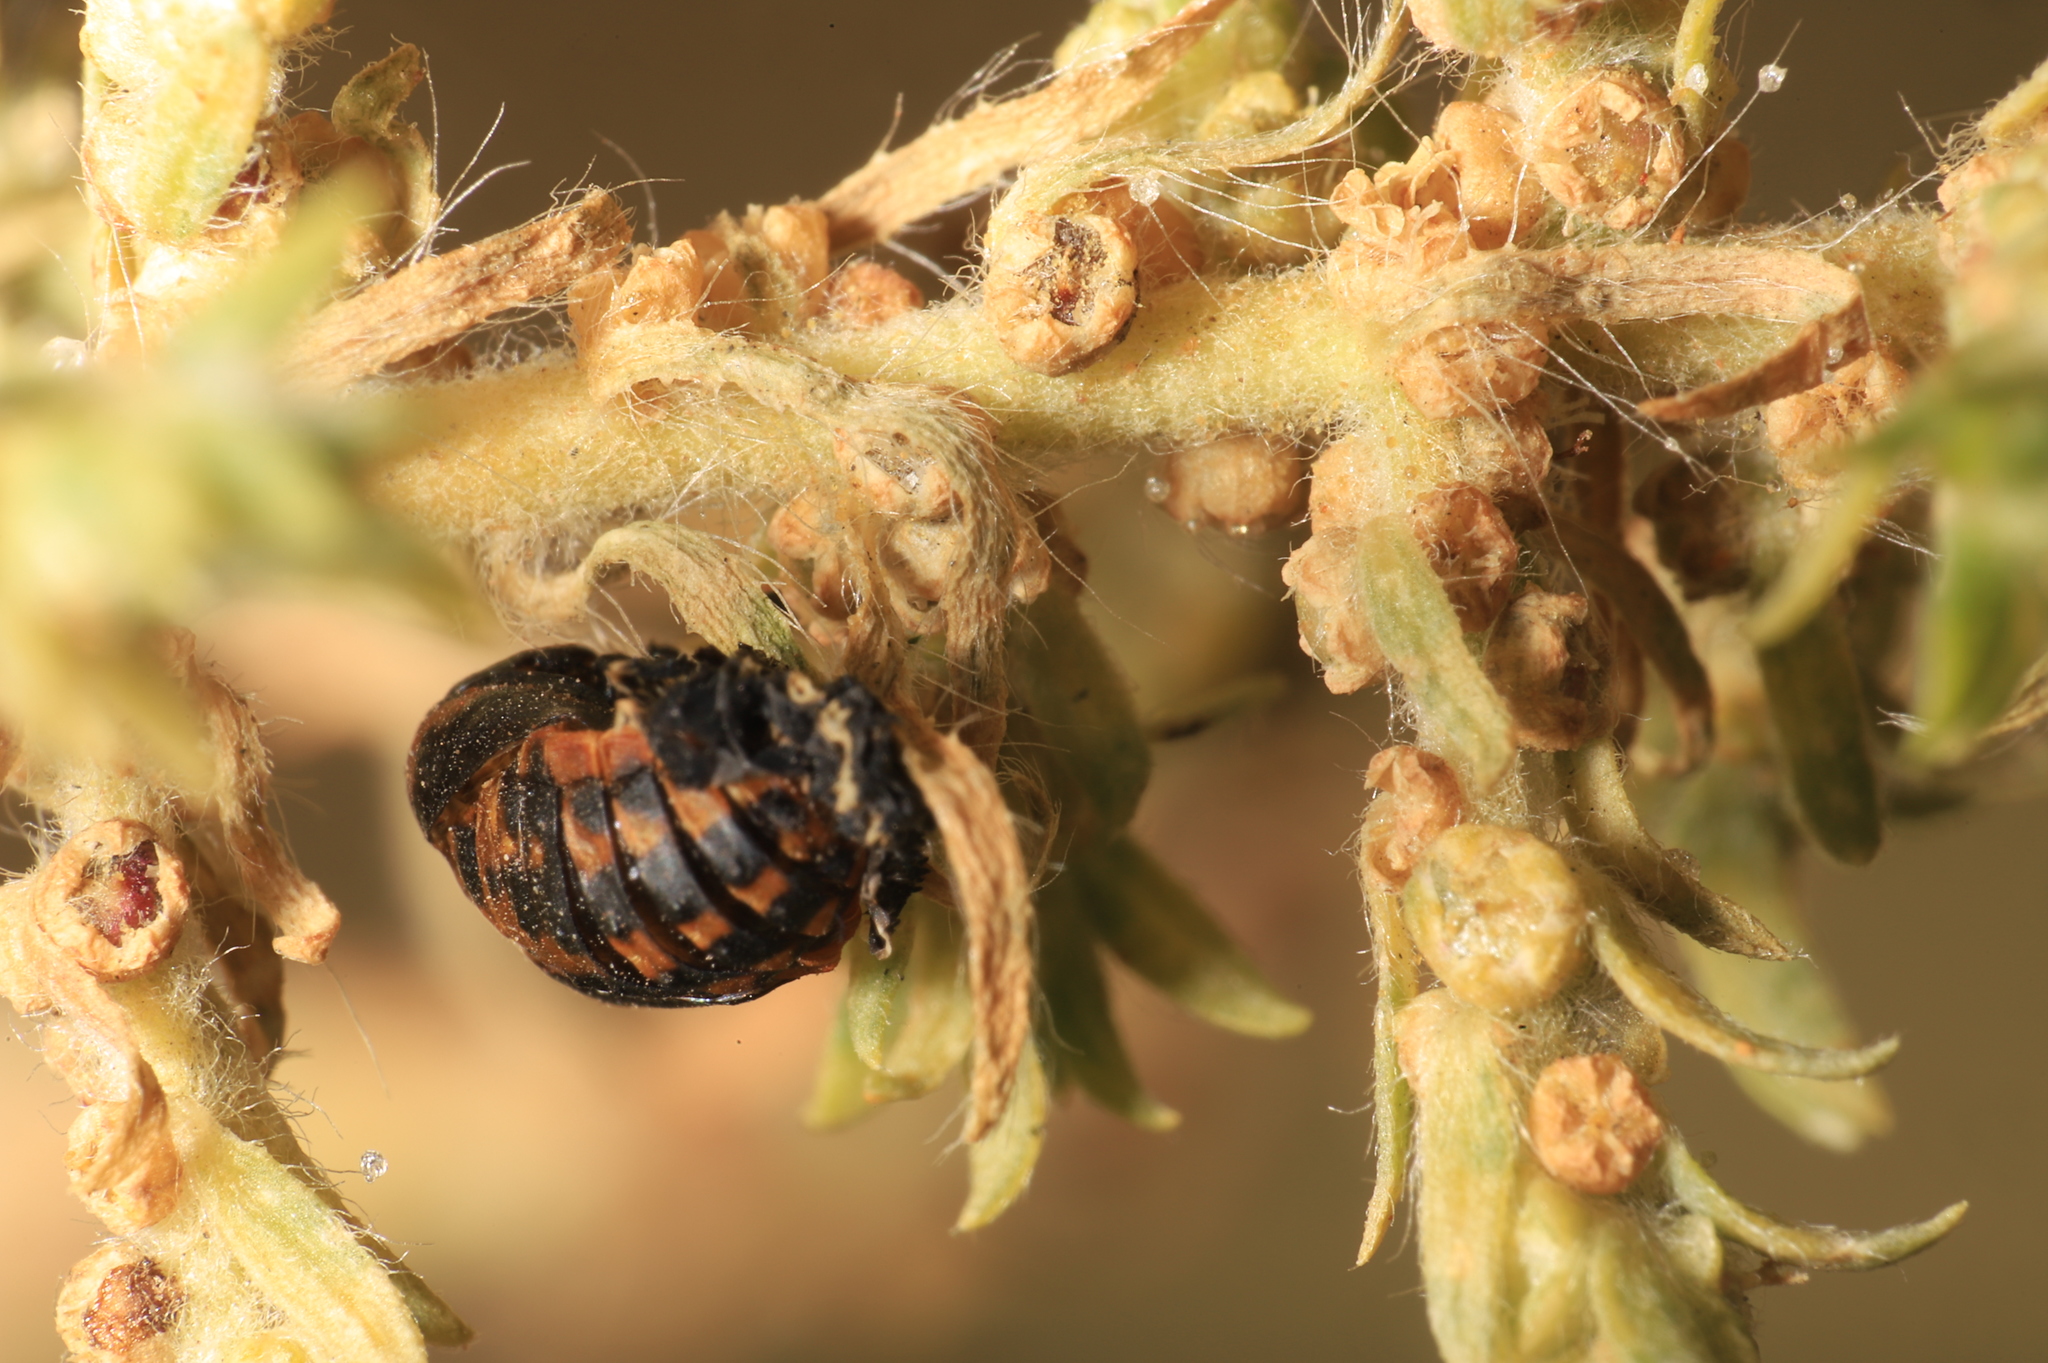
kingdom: Animalia
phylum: Arthropoda
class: Insecta
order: Coleoptera
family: Coccinellidae
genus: Hippodamia
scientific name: Hippodamia convergens
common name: Convergent lady beetle
